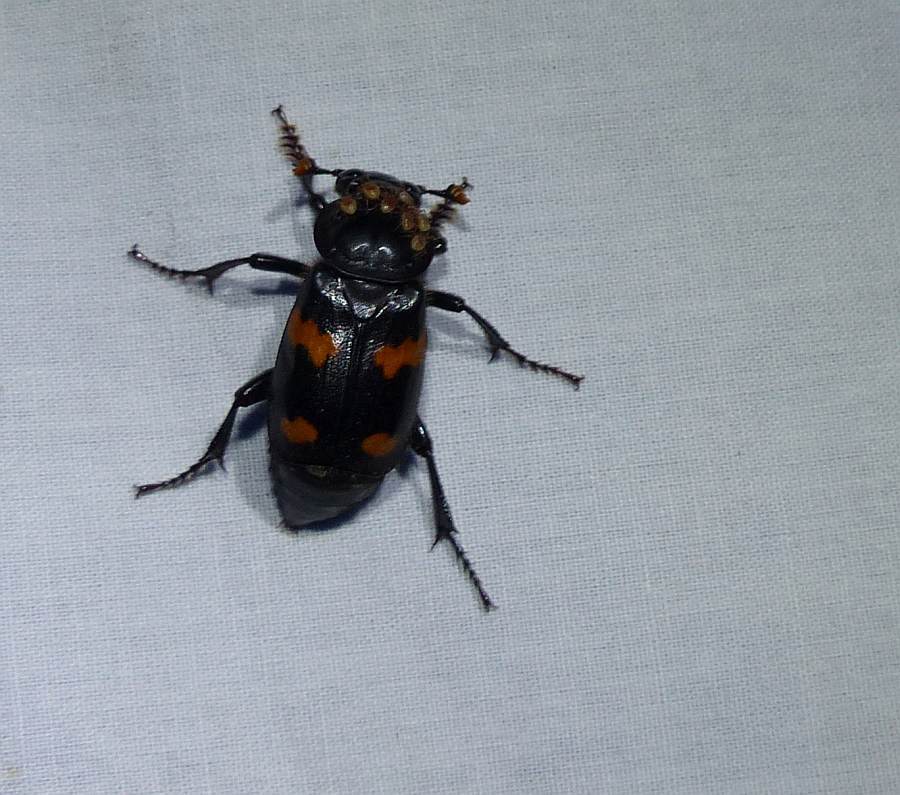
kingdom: Animalia
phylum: Arthropoda
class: Insecta
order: Coleoptera
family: Staphylinidae
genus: Nicrophorus
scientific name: Nicrophorus orbicollis
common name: Roundneck sexton beetle
